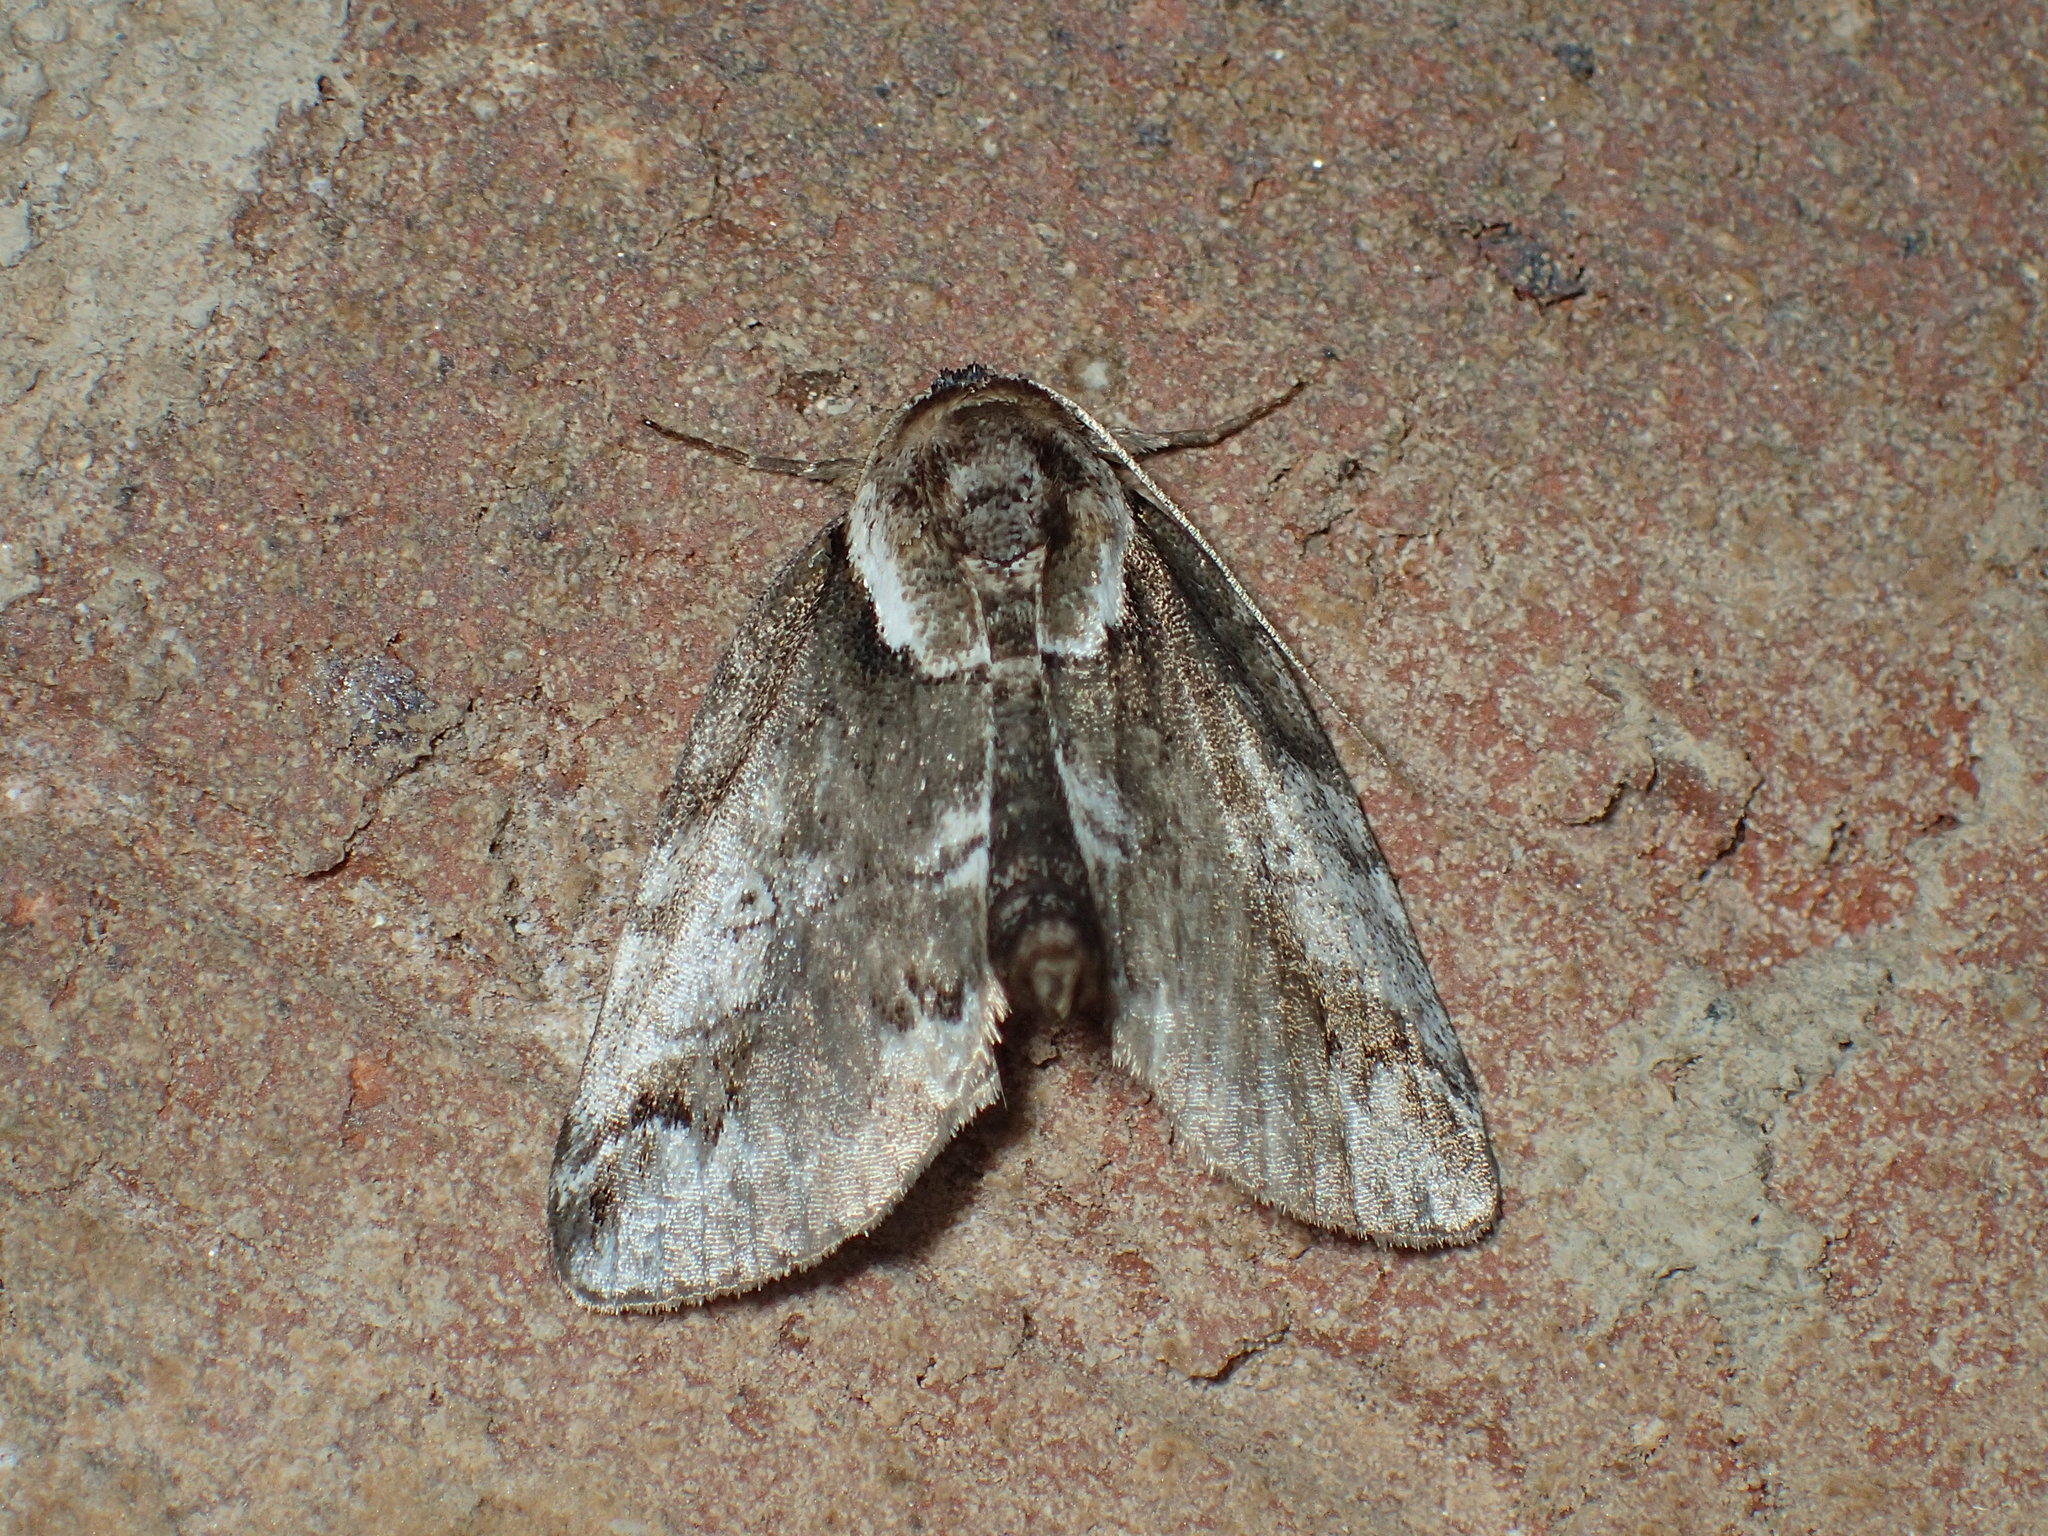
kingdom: Animalia
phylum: Arthropoda
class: Insecta
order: Lepidoptera
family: Nolidae
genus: Baileya
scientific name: Baileya ophthalmica
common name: Eyed baileya moth
